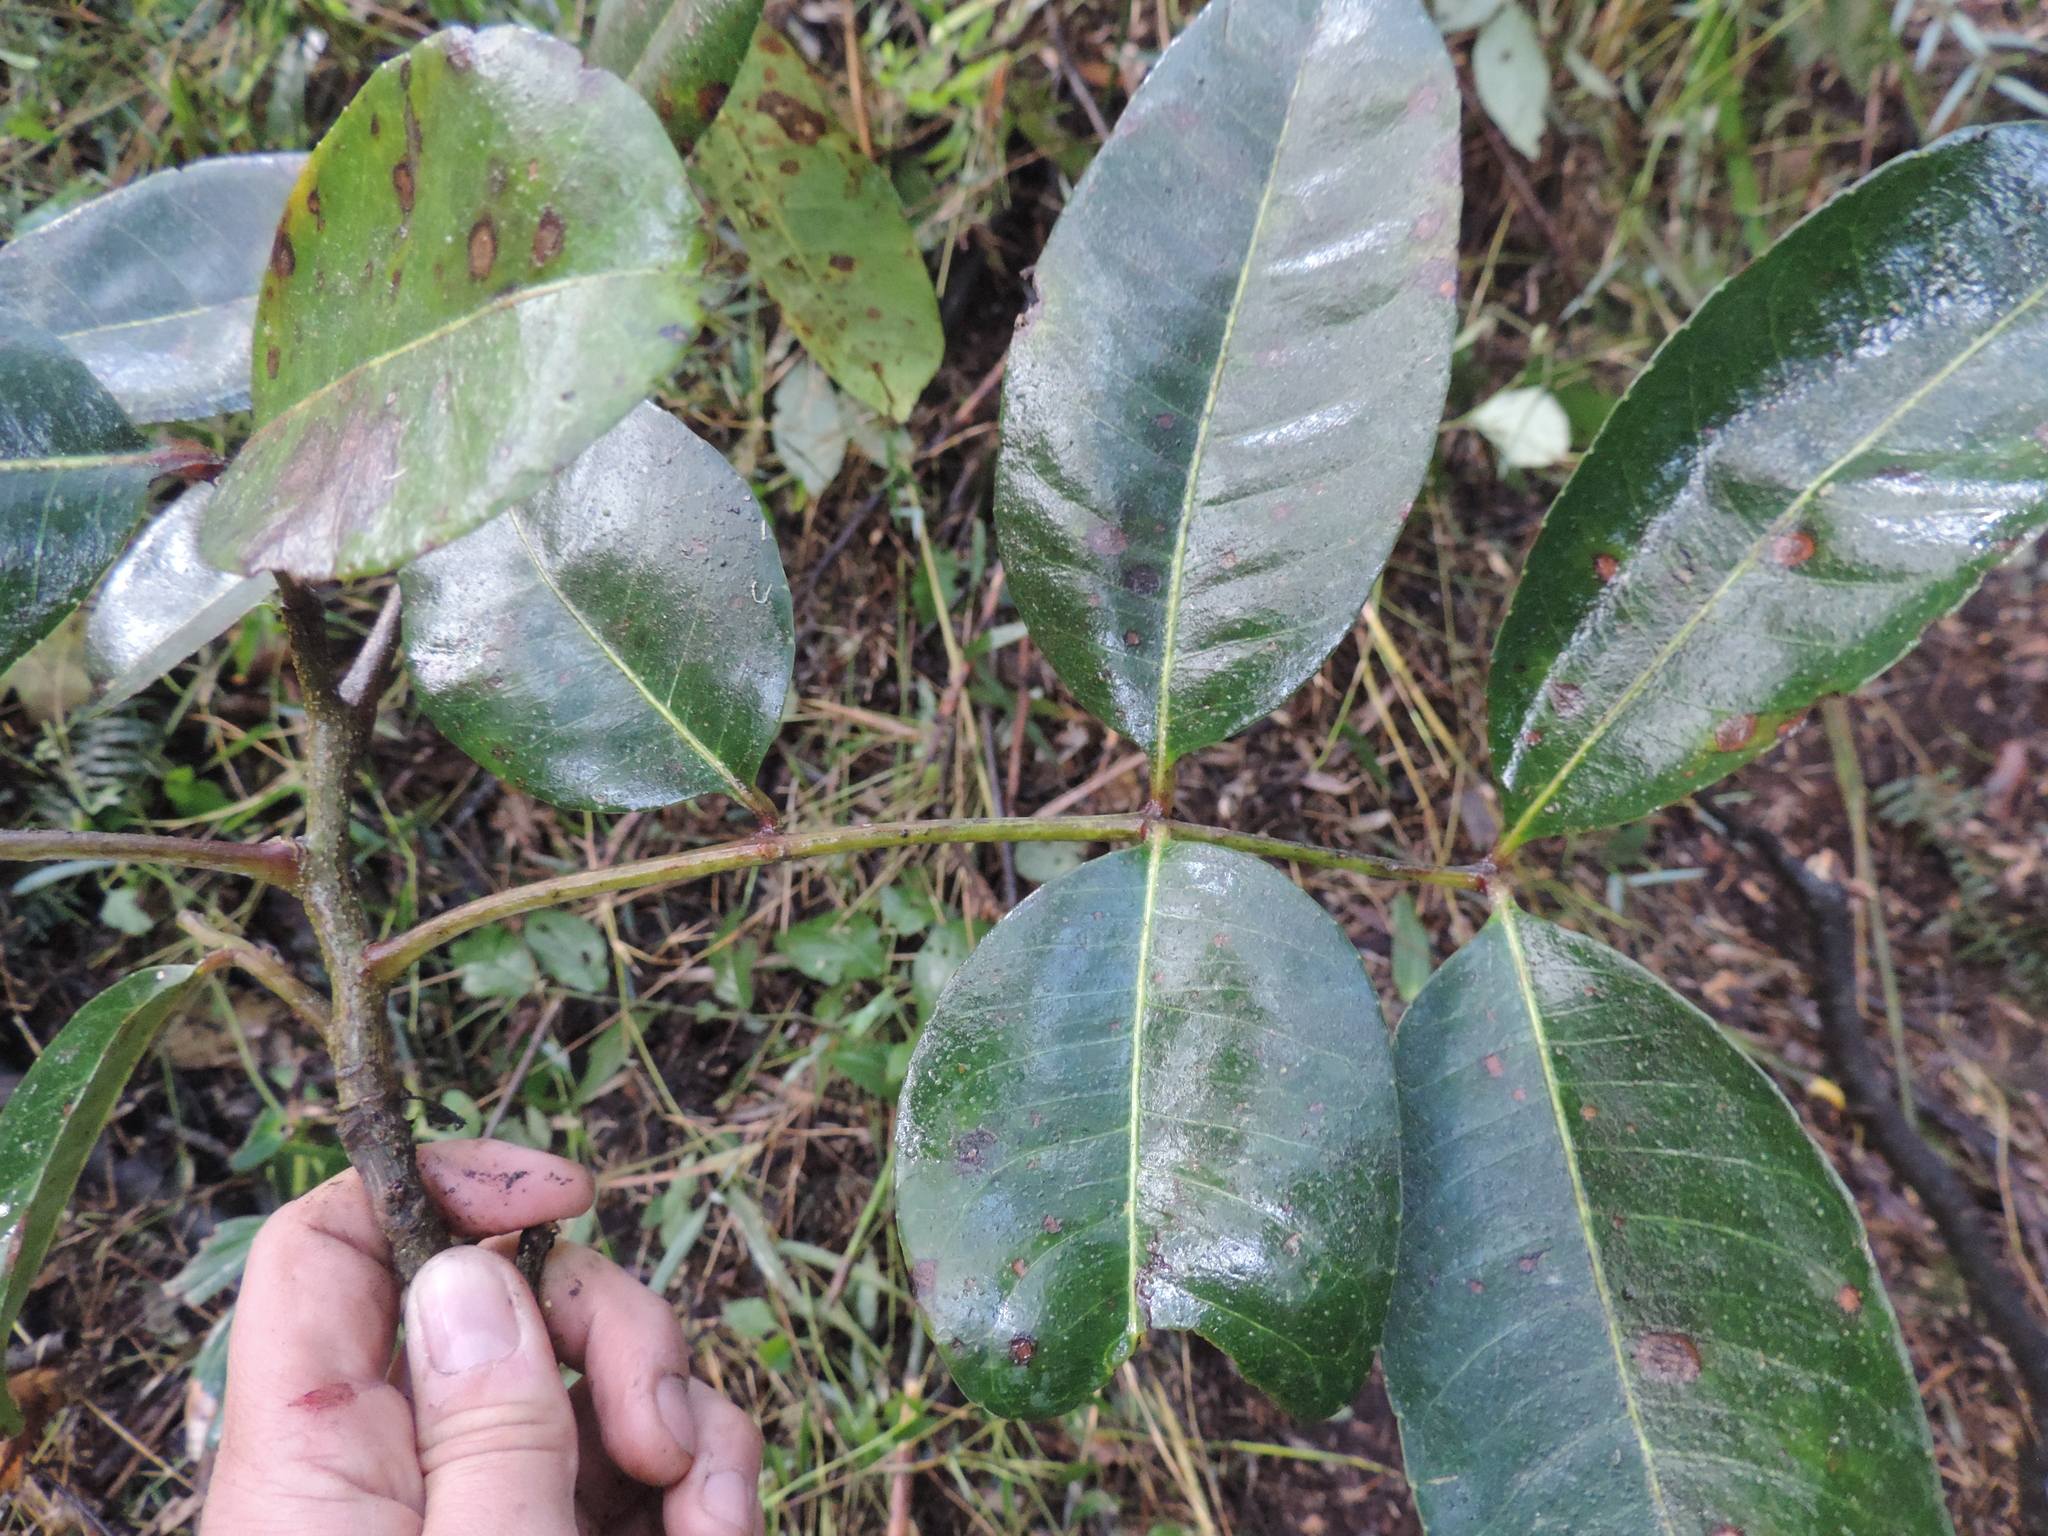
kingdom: Plantae
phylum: Tracheophyta
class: Magnoliopsida
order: Sapindales
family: Rutaceae
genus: Zanthoxylum
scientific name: Zanthoxylum quinduense
